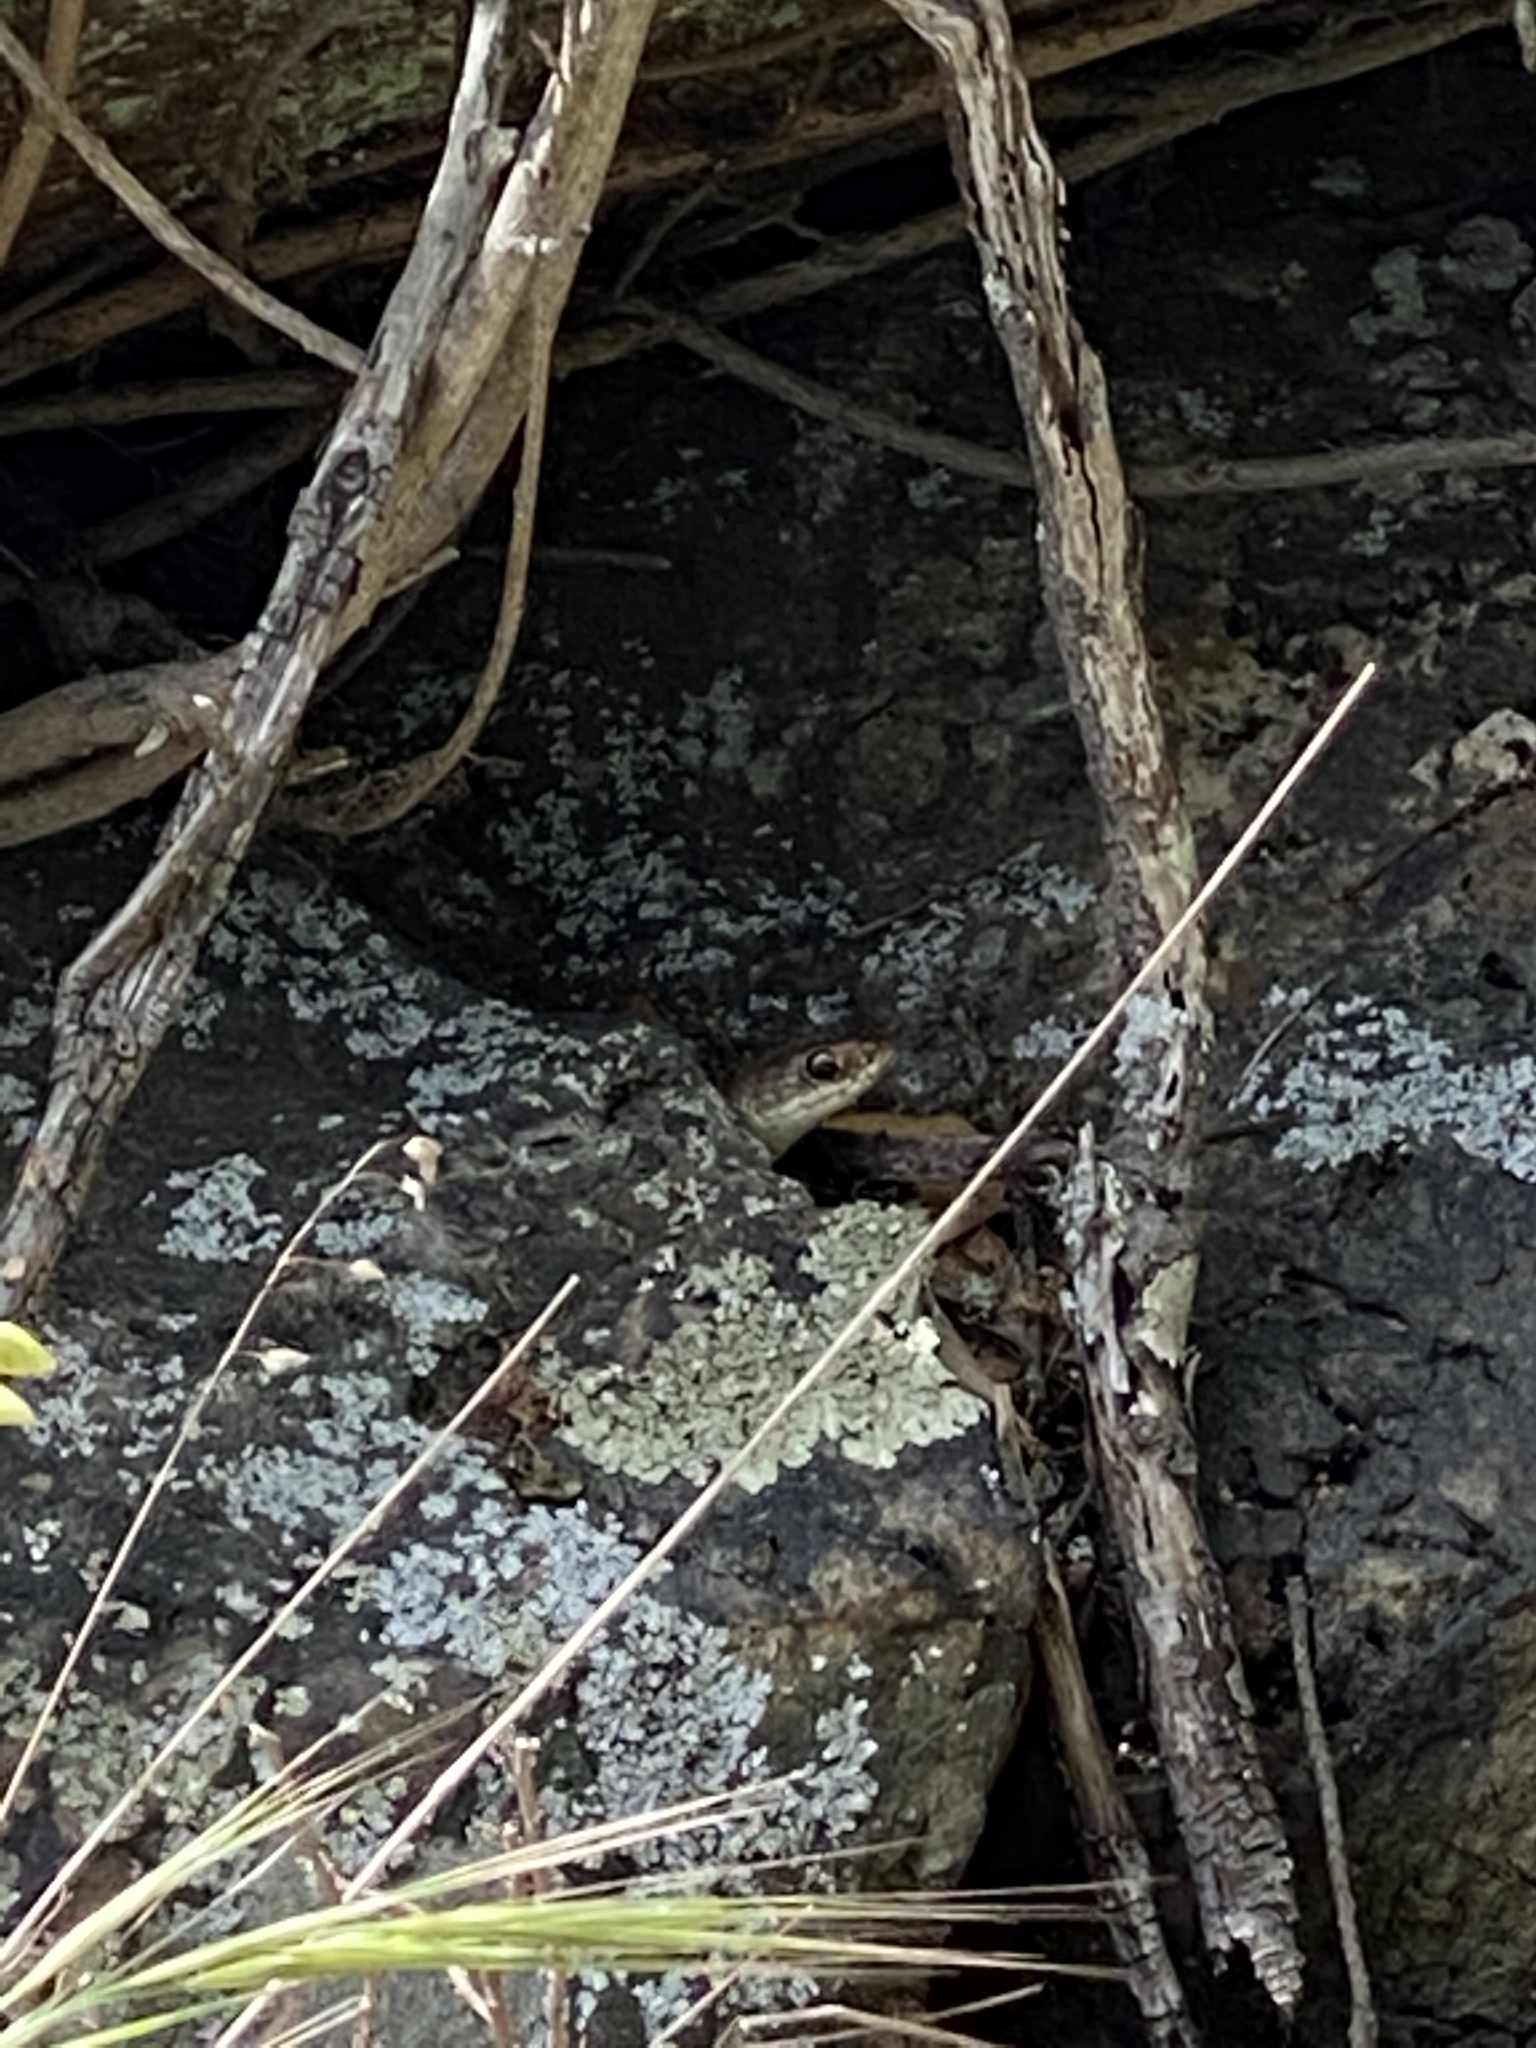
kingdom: Animalia
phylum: Chordata
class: Squamata
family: Colubridae
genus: Coluber
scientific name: Coluber constrictor
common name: Eastern racer
